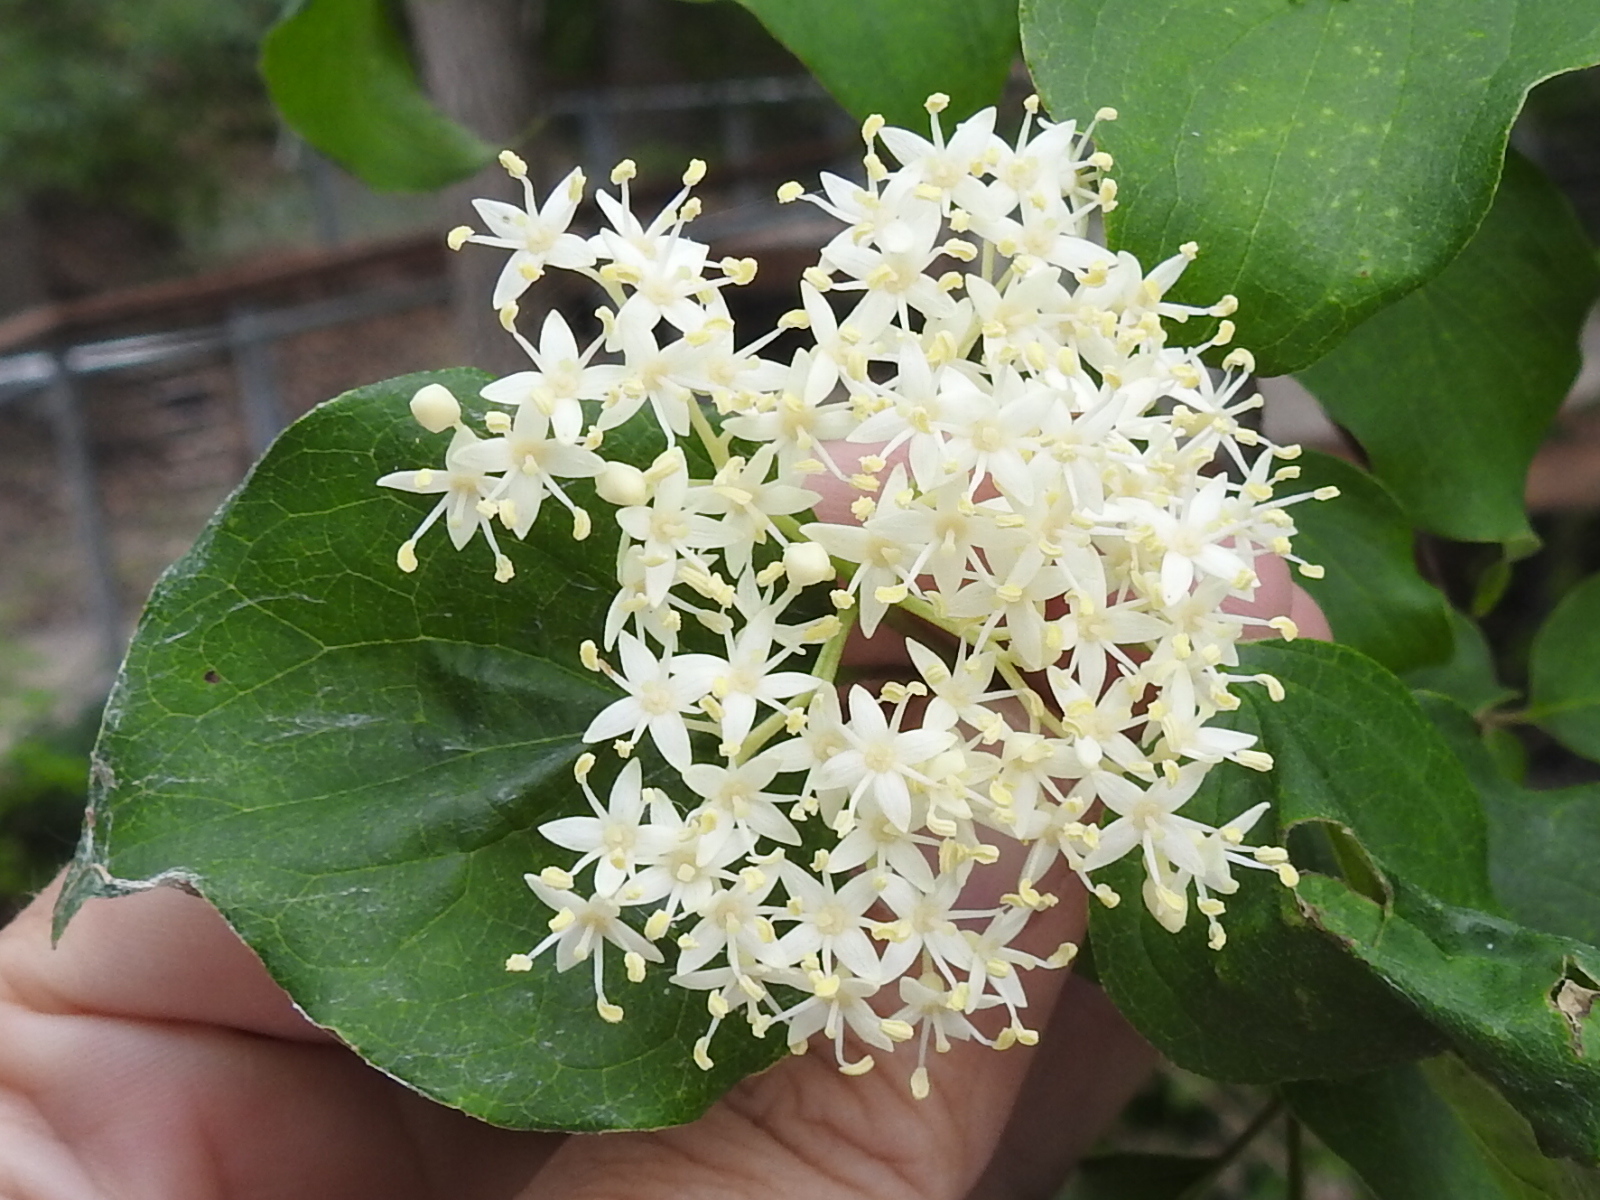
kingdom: Plantae
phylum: Tracheophyta
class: Magnoliopsida
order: Cornales
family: Cornaceae
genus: Cornus
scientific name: Cornus drummondii
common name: Rough-leaf dogwood
